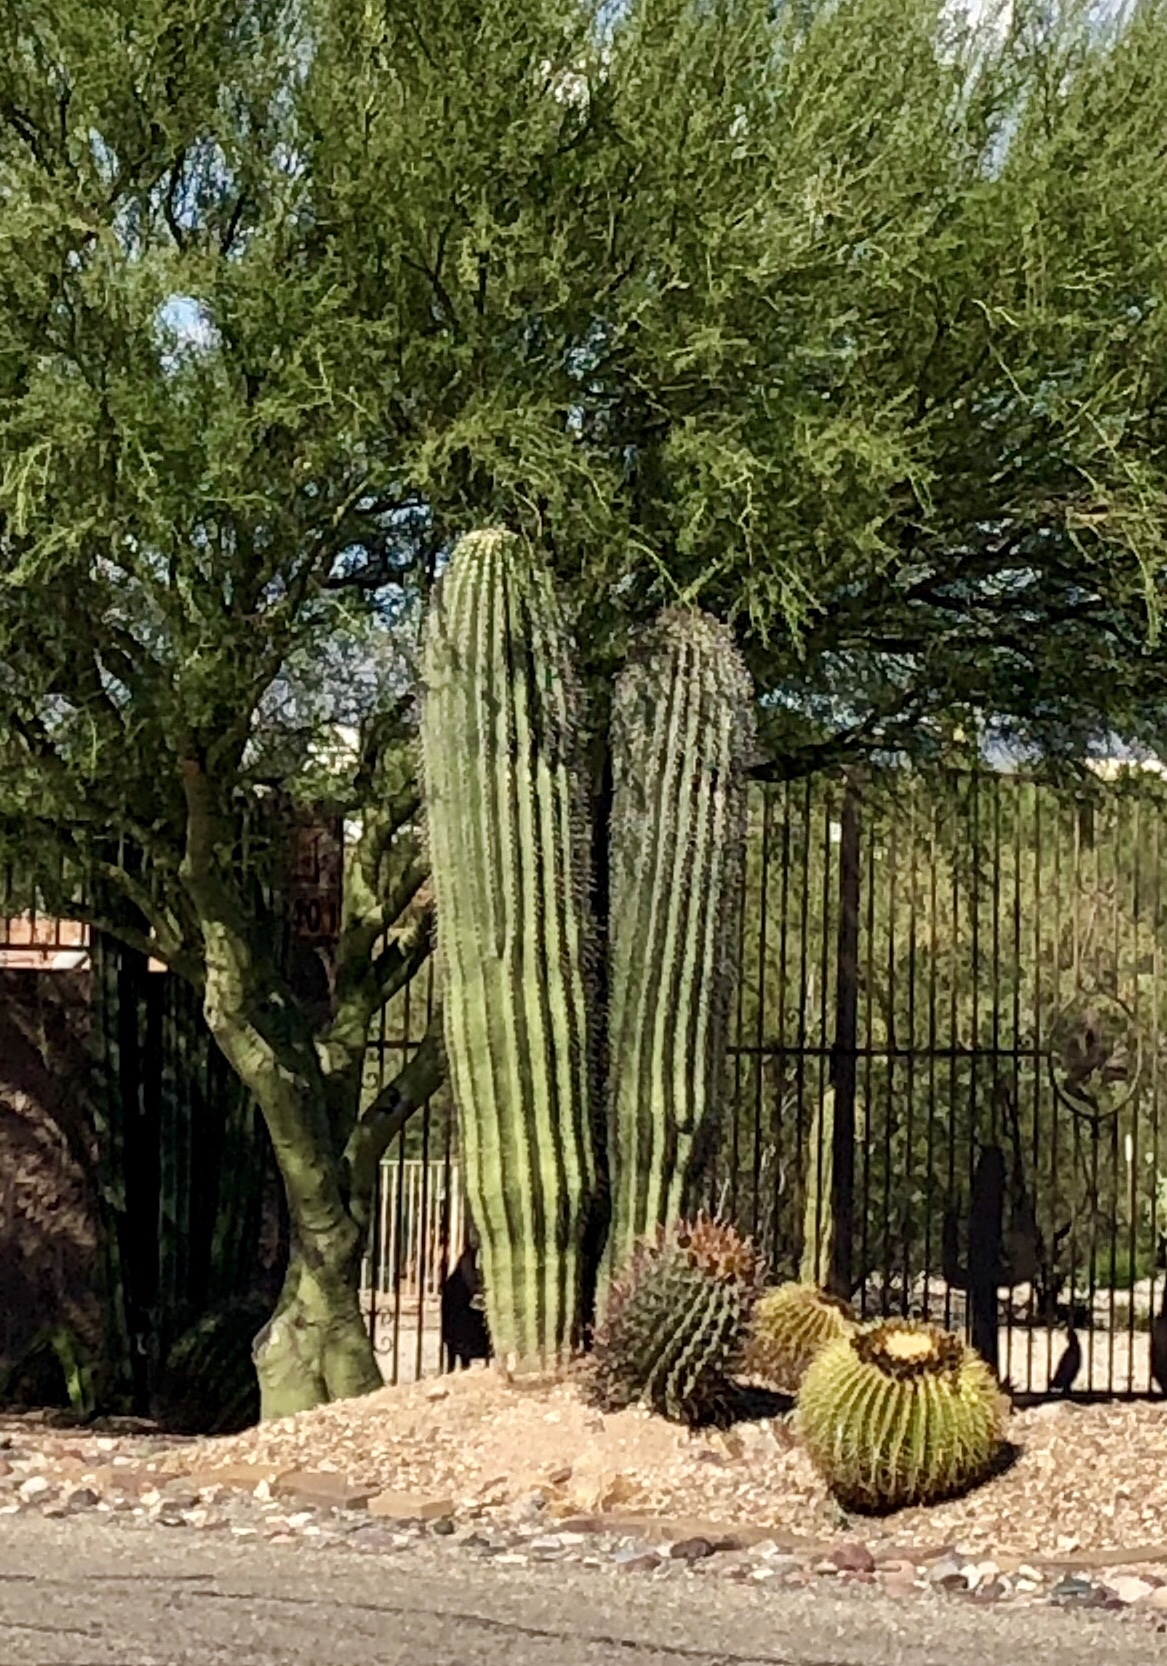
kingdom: Plantae
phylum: Tracheophyta
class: Magnoliopsida
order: Caryophyllales
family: Cactaceae
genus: Carnegiea
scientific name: Carnegiea gigantea
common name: Saguaro
